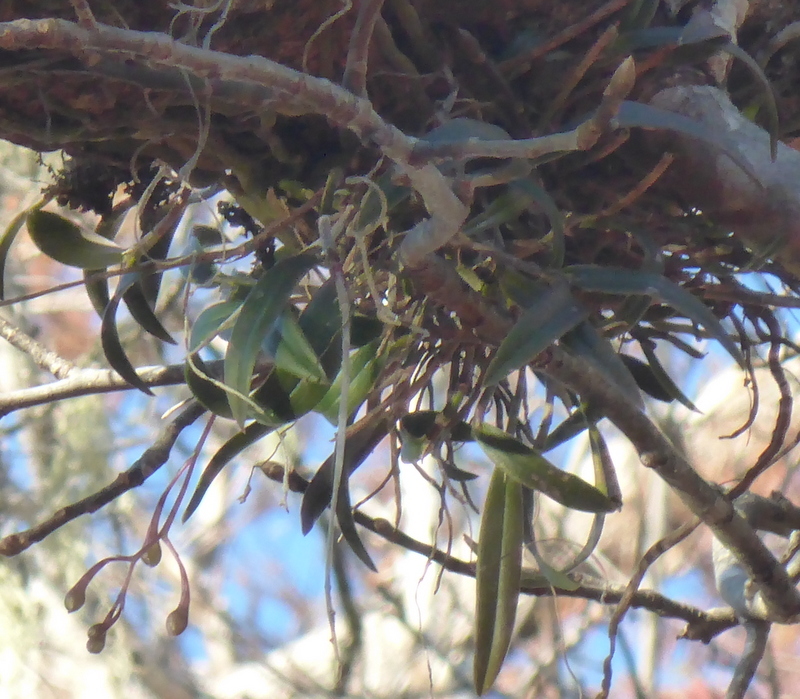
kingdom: Plantae
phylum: Tracheophyta
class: Liliopsida
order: Asparagales
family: Orchidaceae
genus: Epidendrum
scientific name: Epidendrum conopseum
